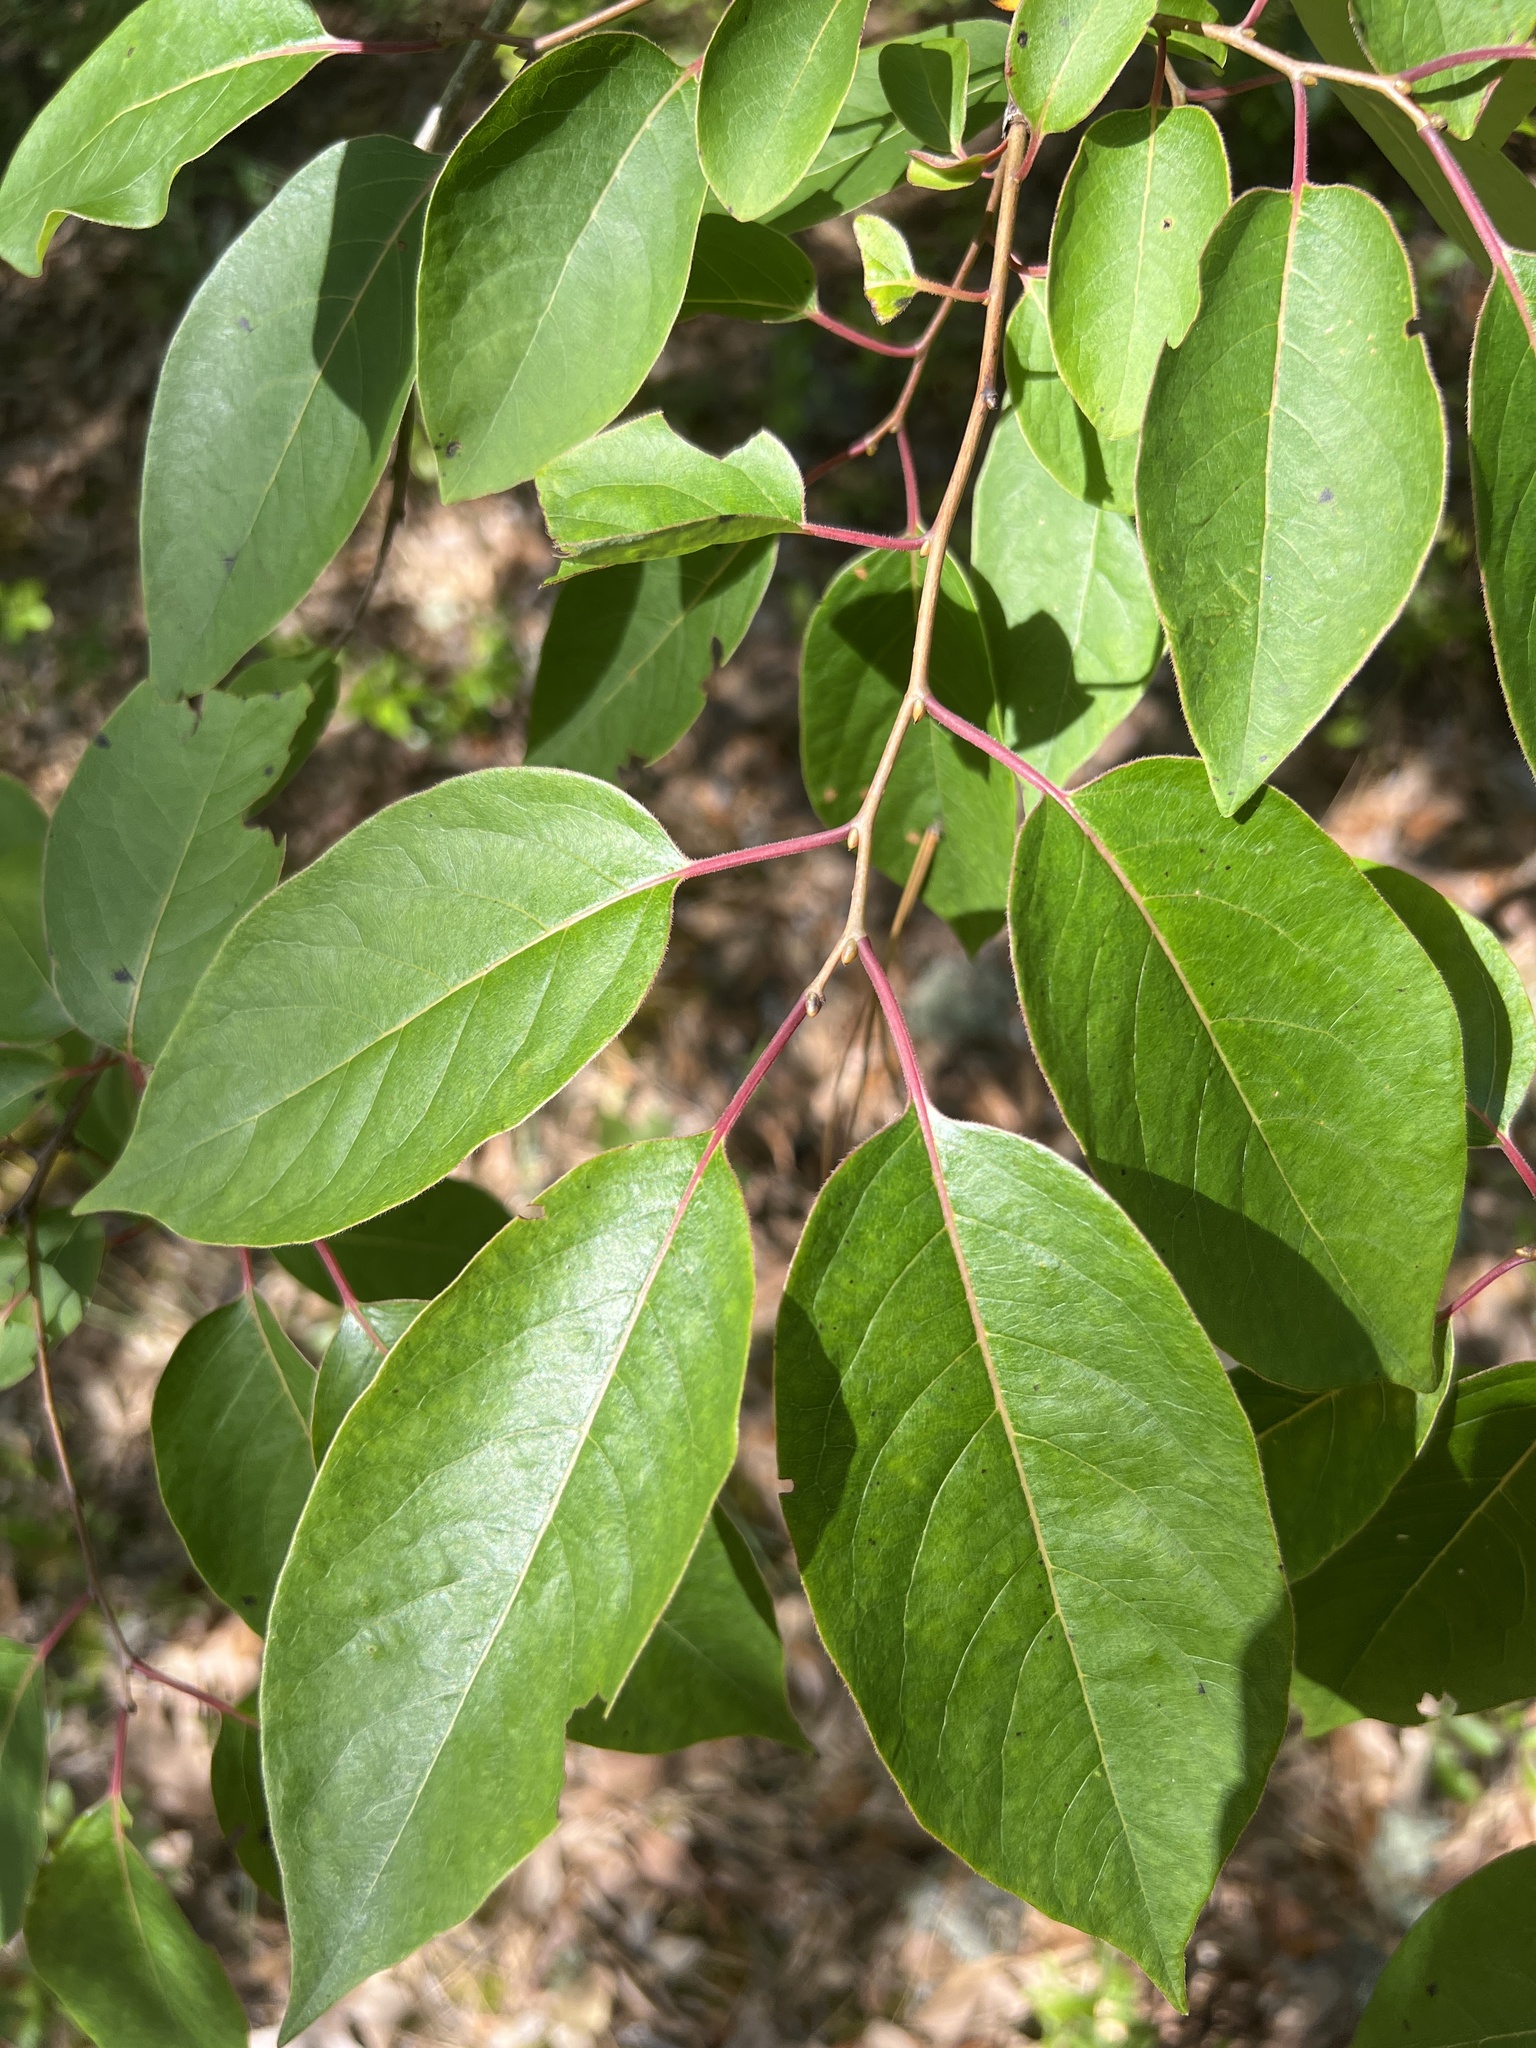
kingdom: Plantae
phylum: Tracheophyta
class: Magnoliopsida
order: Ericales
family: Ebenaceae
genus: Diospyros
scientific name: Diospyros virginiana
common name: Persimmon
